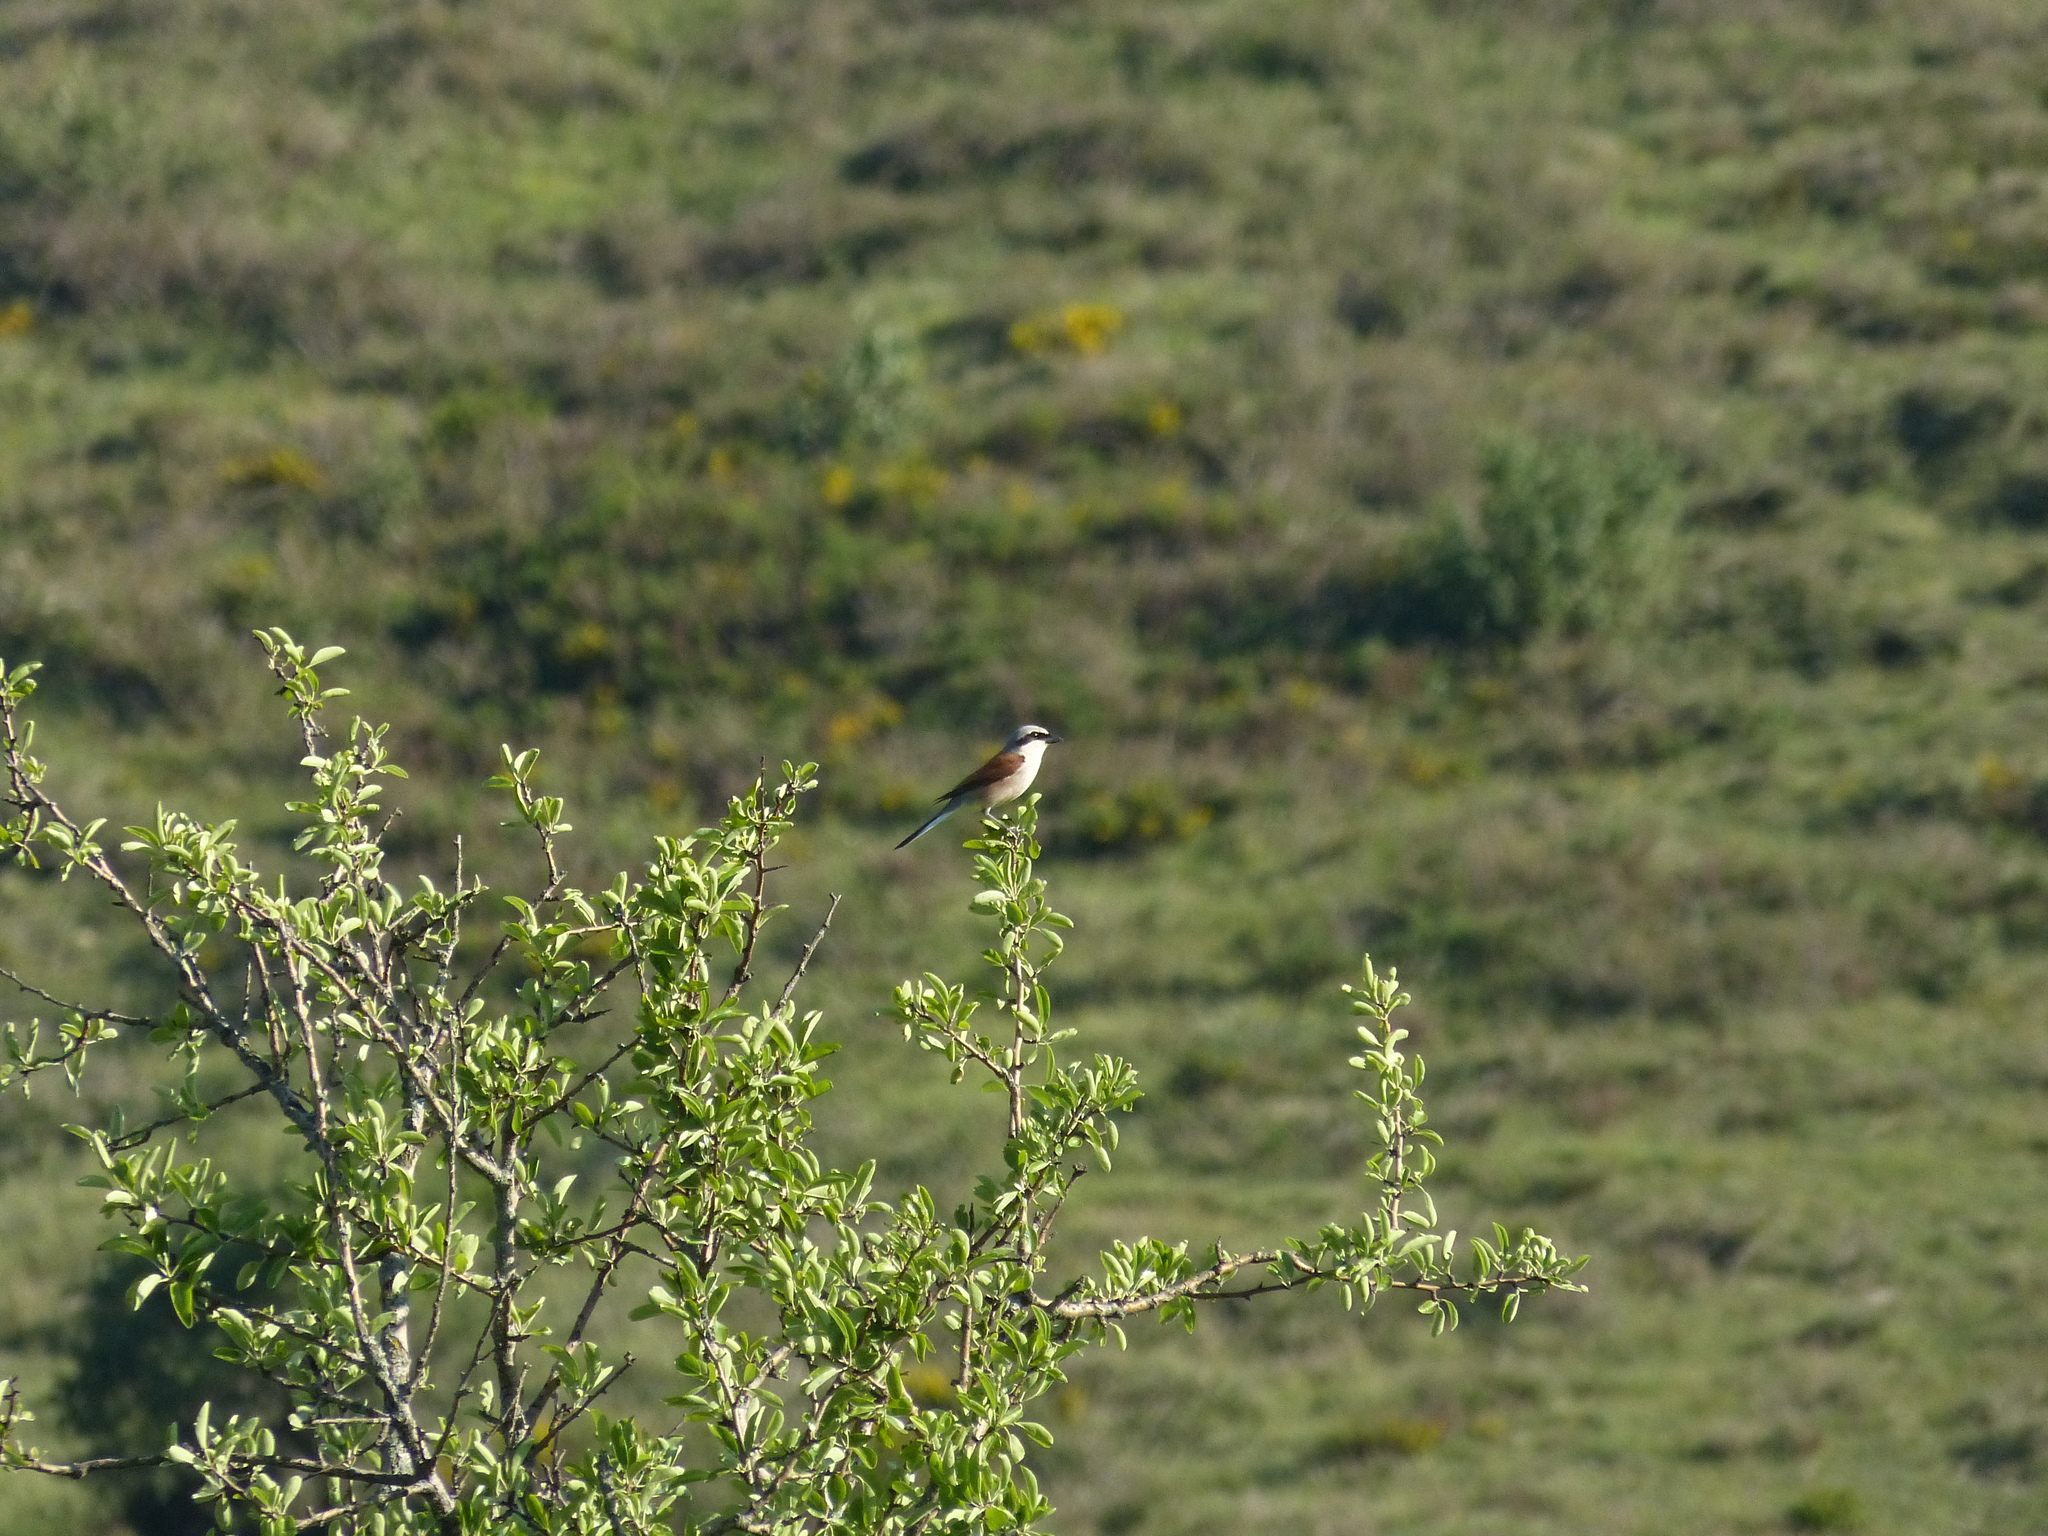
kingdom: Animalia
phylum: Chordata
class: Aves
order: Passeriformes
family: Laniidae
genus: Lanius
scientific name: Lanius collurio
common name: Red-backed shrike
